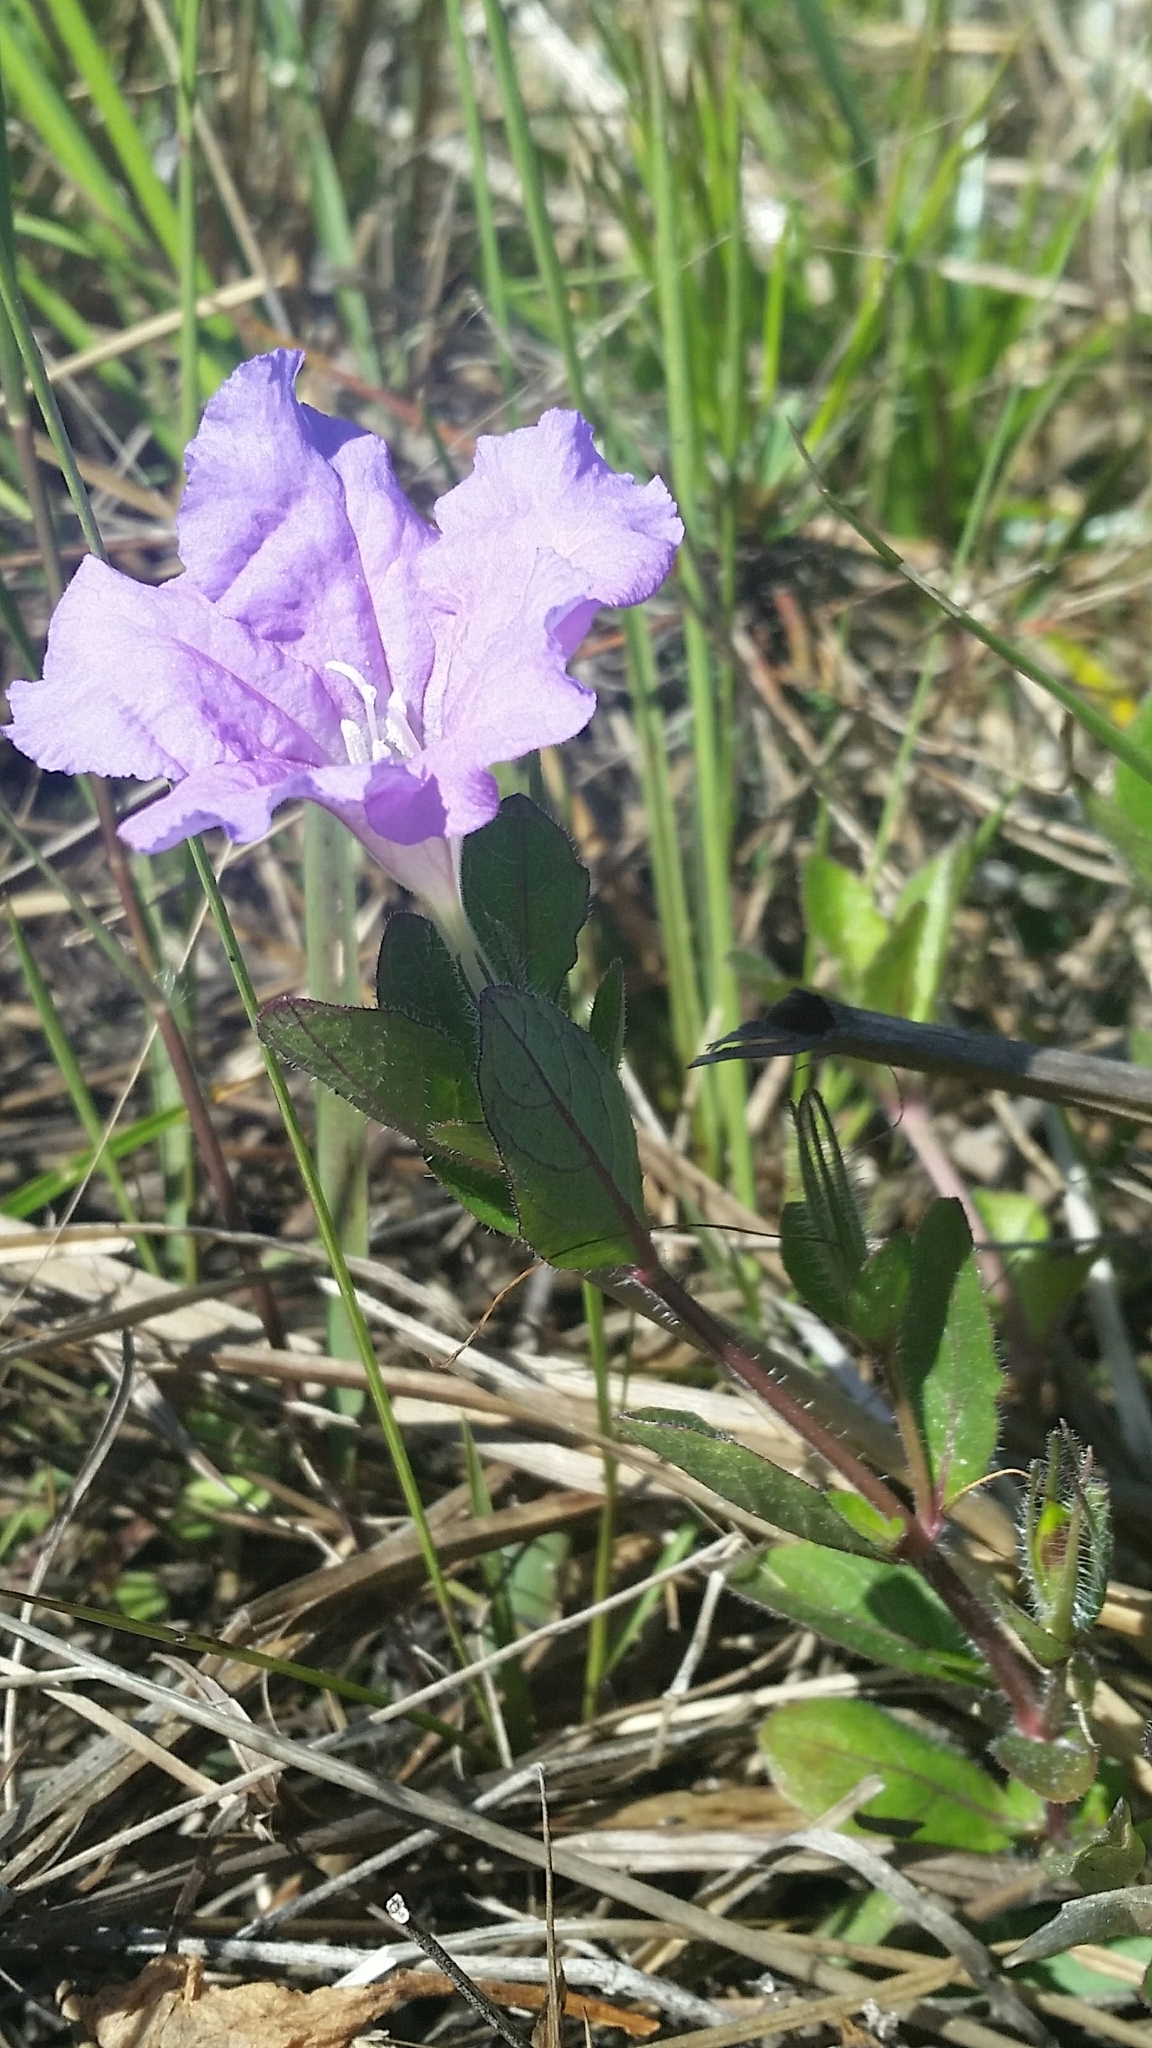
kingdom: Plantae
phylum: Tracheophyta
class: Magnoliopsida
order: Lamiales
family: Acanthaceae
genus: Ruellia
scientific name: Ruellia caroliniensis
